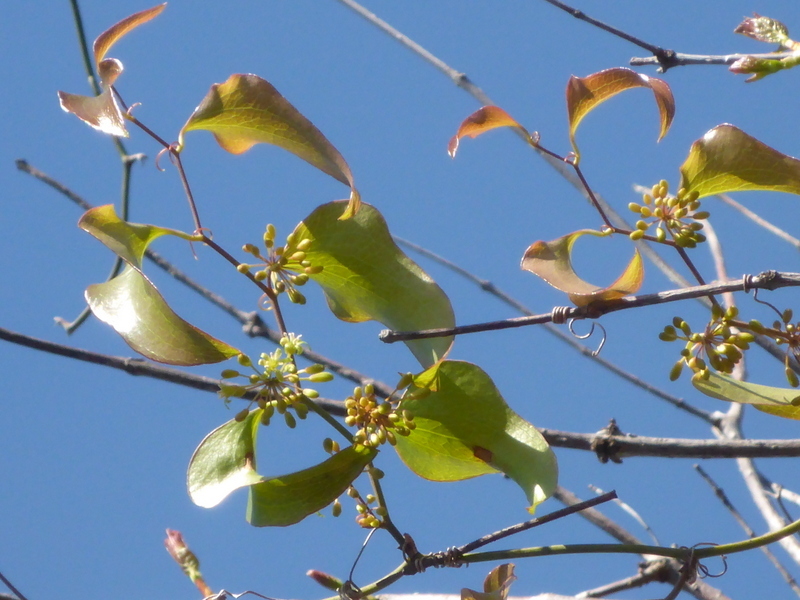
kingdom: Plantae
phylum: Tracheophyta
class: Liliopsida
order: Liliales
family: Smilacaceae
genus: Smilax
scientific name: Smilax bona-nox
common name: Catbrier
